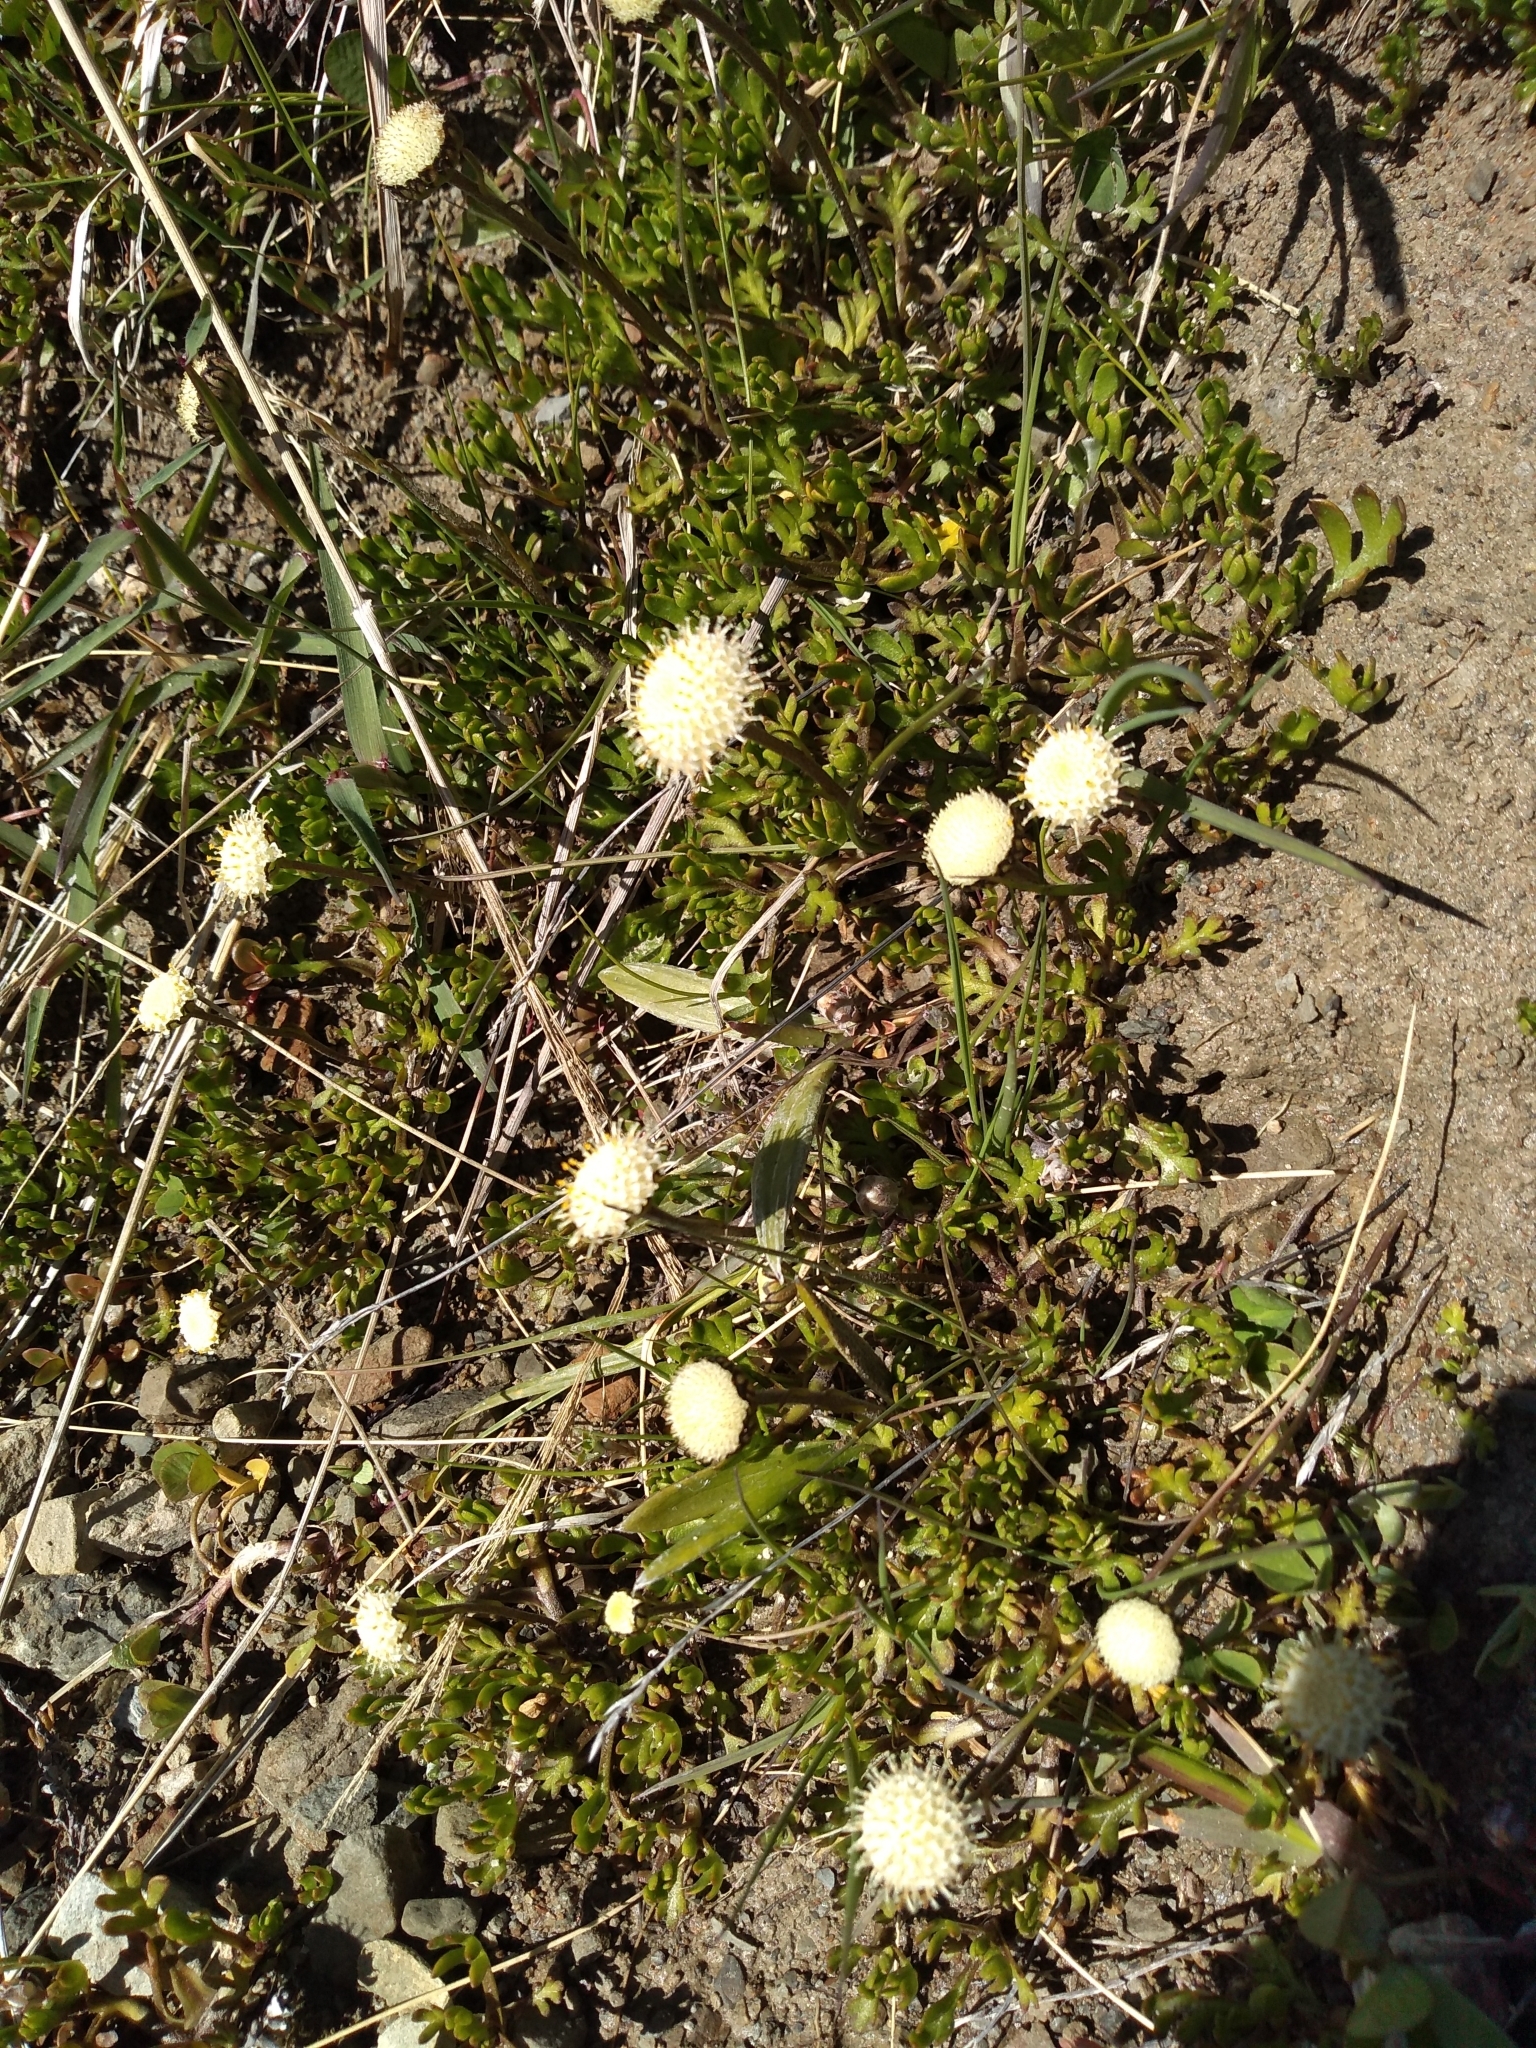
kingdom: Plantae
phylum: Tracheophyta
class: Magnoliopsida
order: Asterales
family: Asteraceae
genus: Leptinella
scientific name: Leptinella pyrethrifolia
